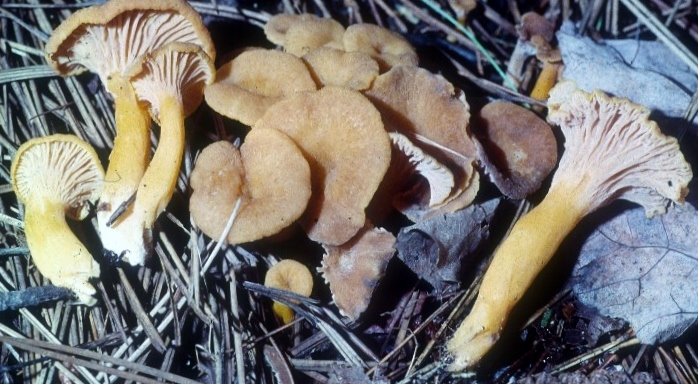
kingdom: Fungi
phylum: Basidiomycota
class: Agaricomycetes
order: Cantharellales
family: Hydnaceae
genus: Craterellus
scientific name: Craterellus ignicolor
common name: Flame chanterelle
